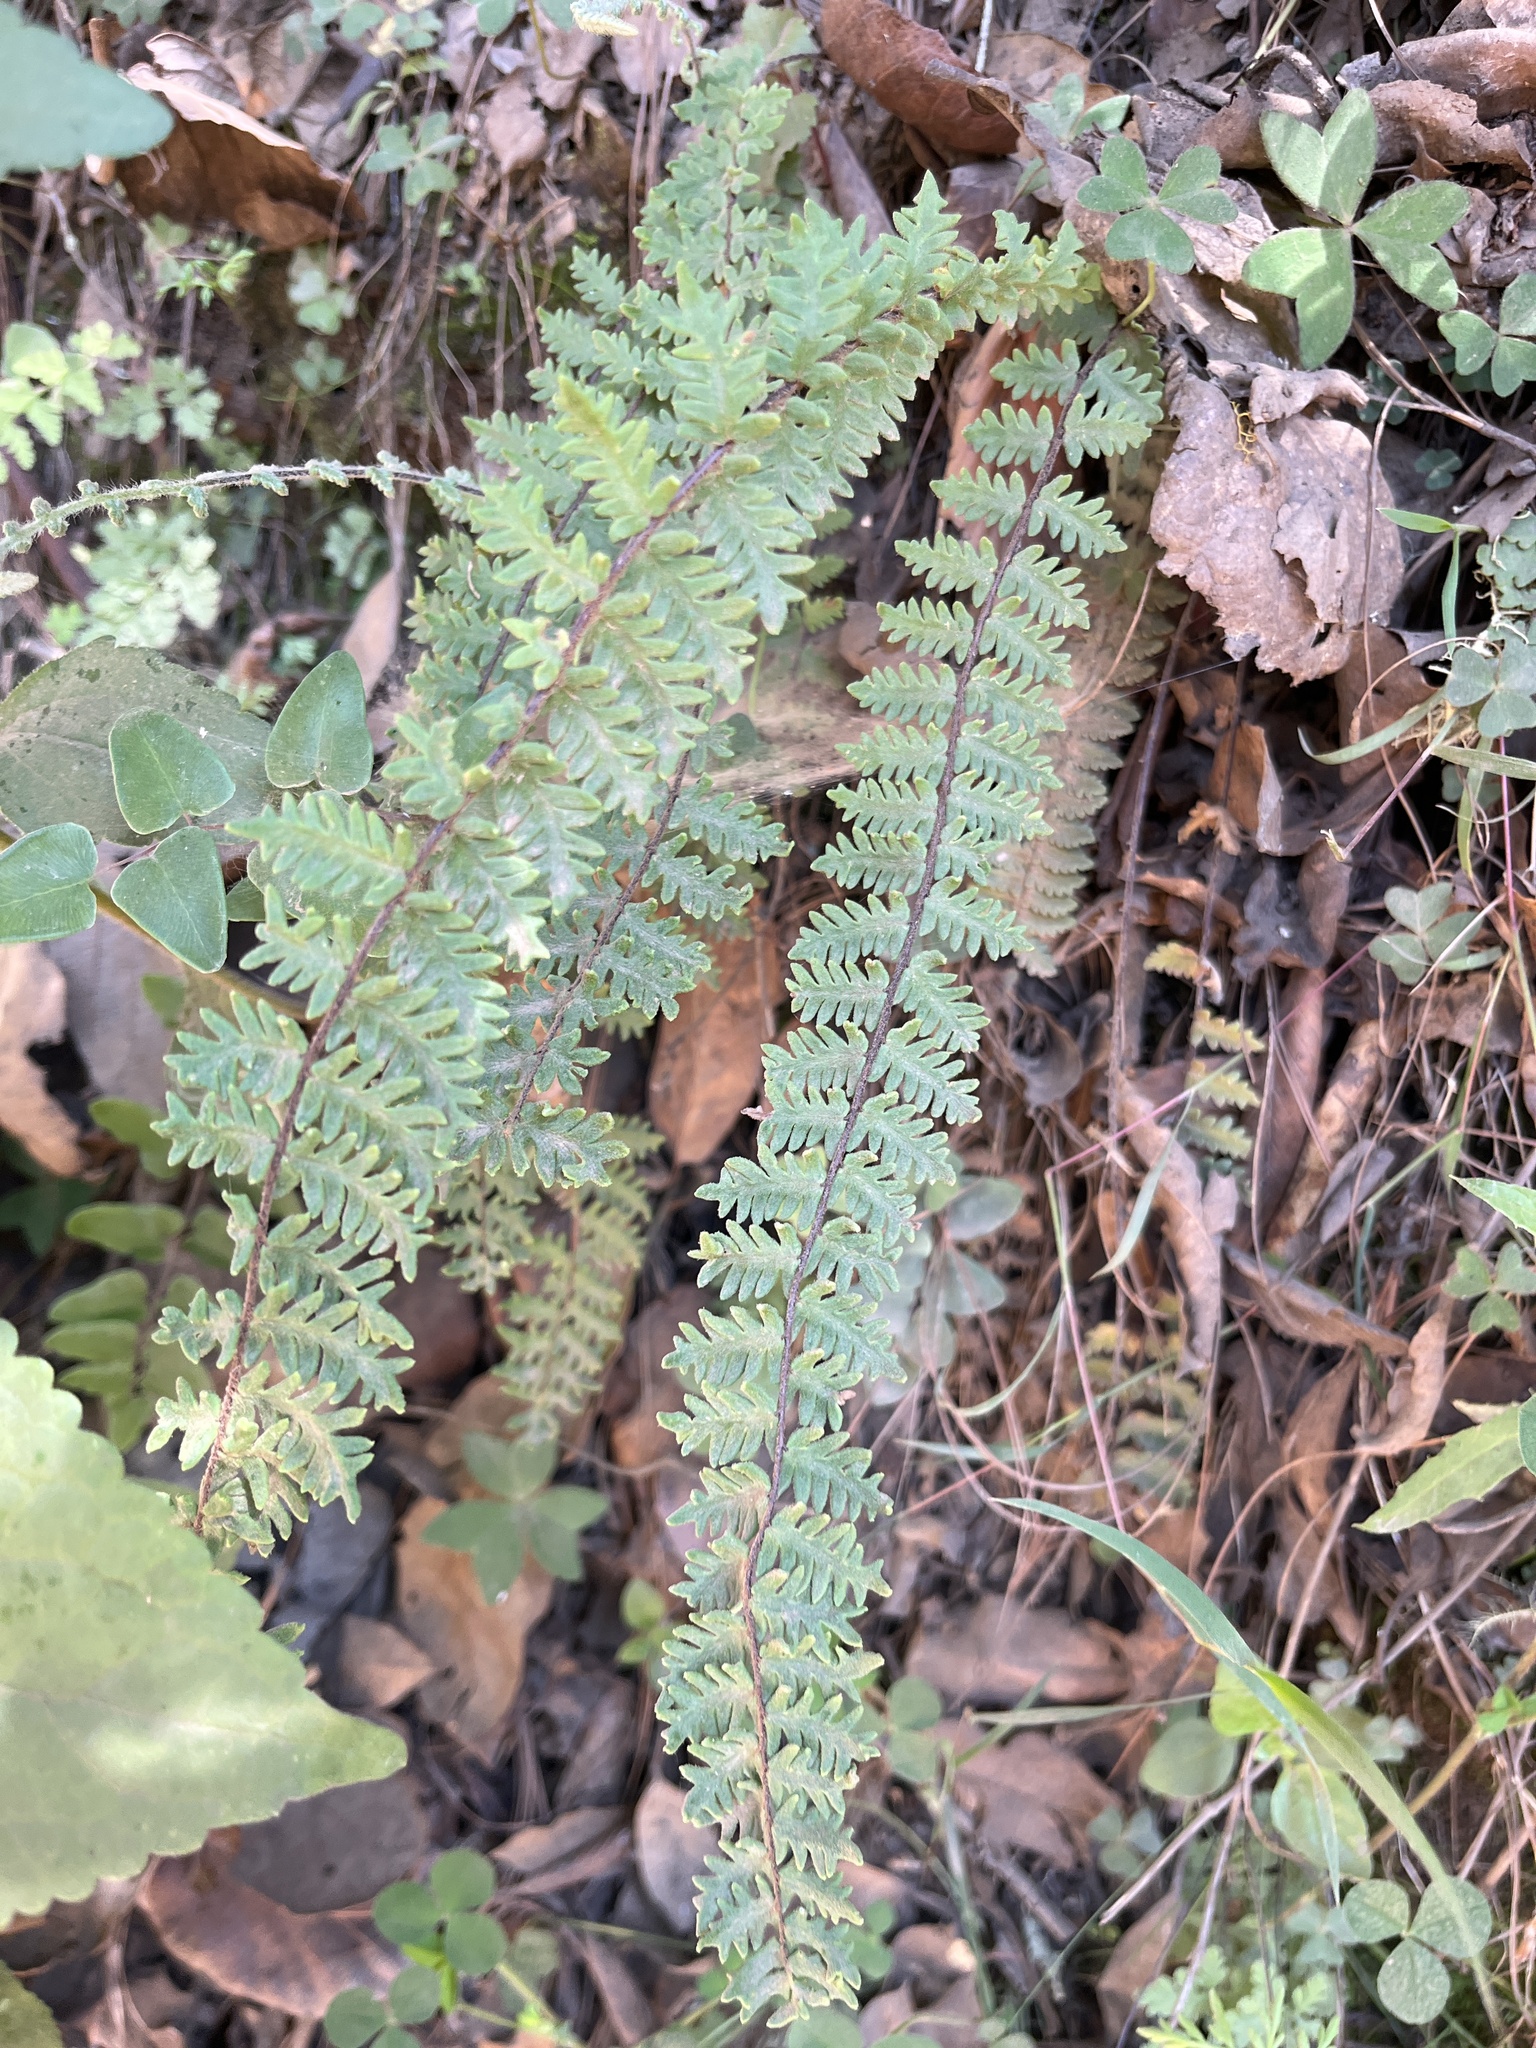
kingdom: Plantae
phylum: Tracheophyta
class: Polypodiopsida
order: Polypodiales
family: Pteridaceae
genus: Myriopteris
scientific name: Myriopteris aurea
